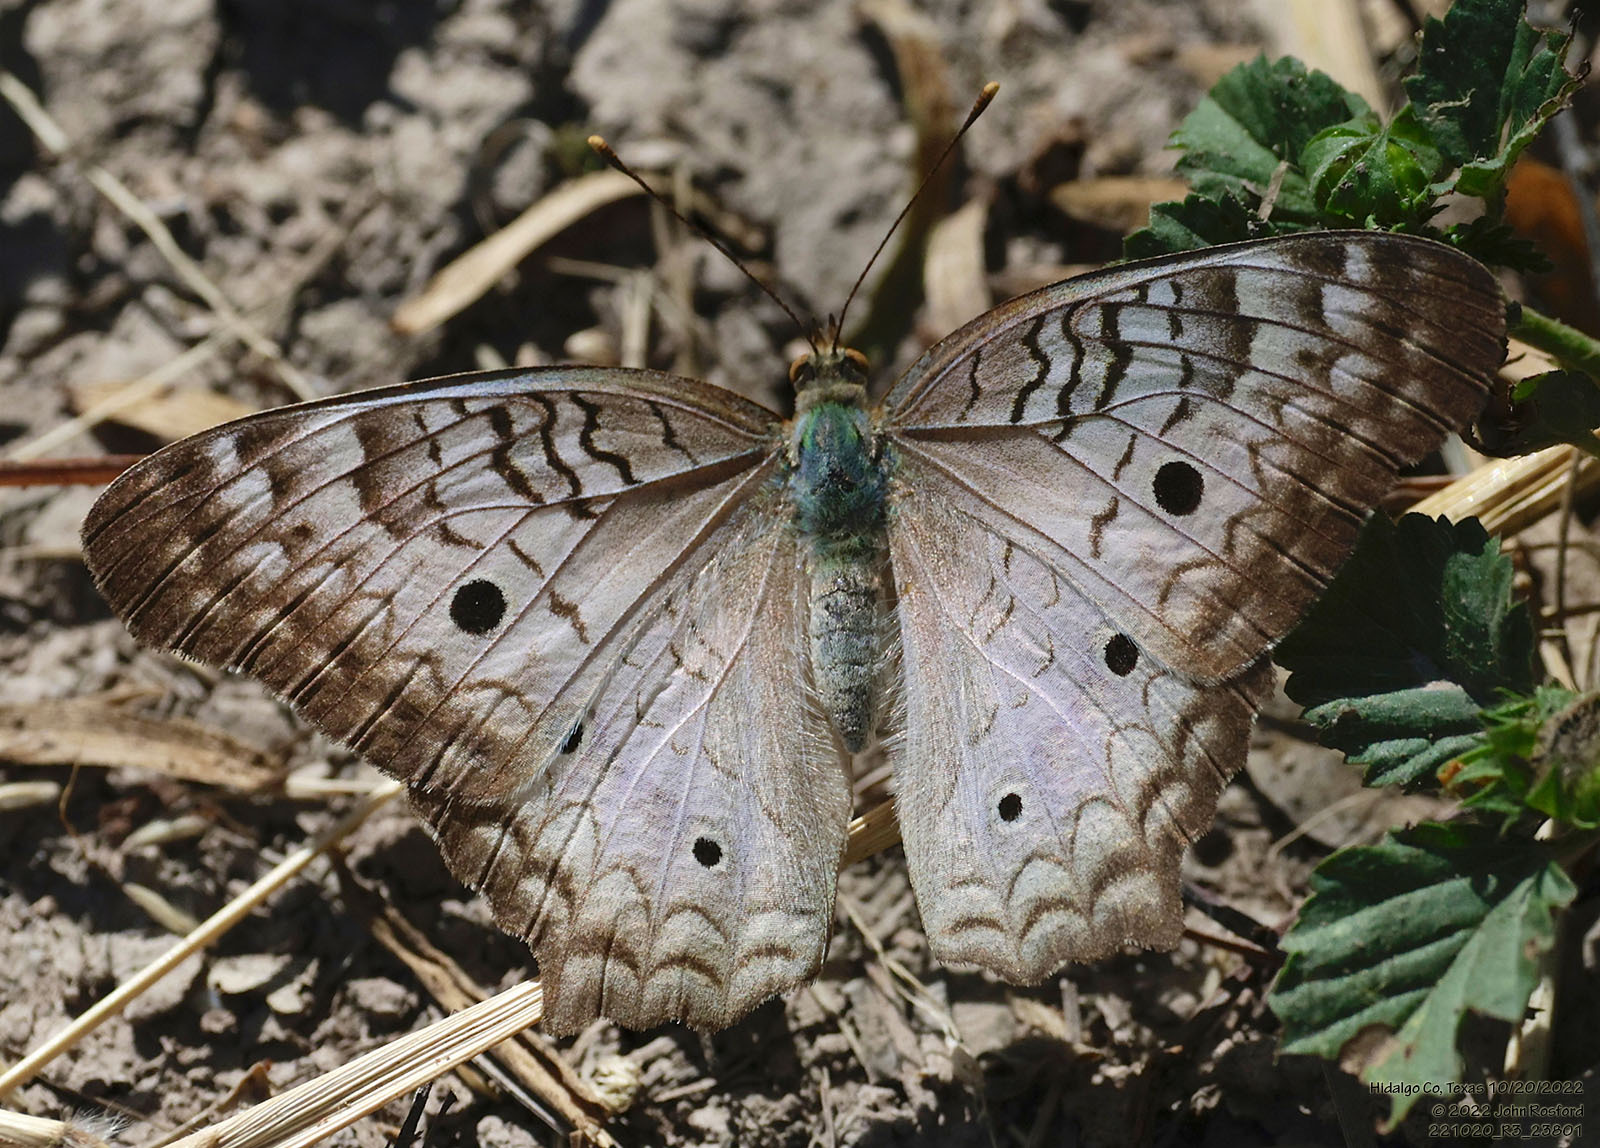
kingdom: Animalia
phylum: Arthropoda
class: Insecta
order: Lepidoptera
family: Nymphalidae
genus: Anartia
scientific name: Anartia jatrophae
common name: White peacock
